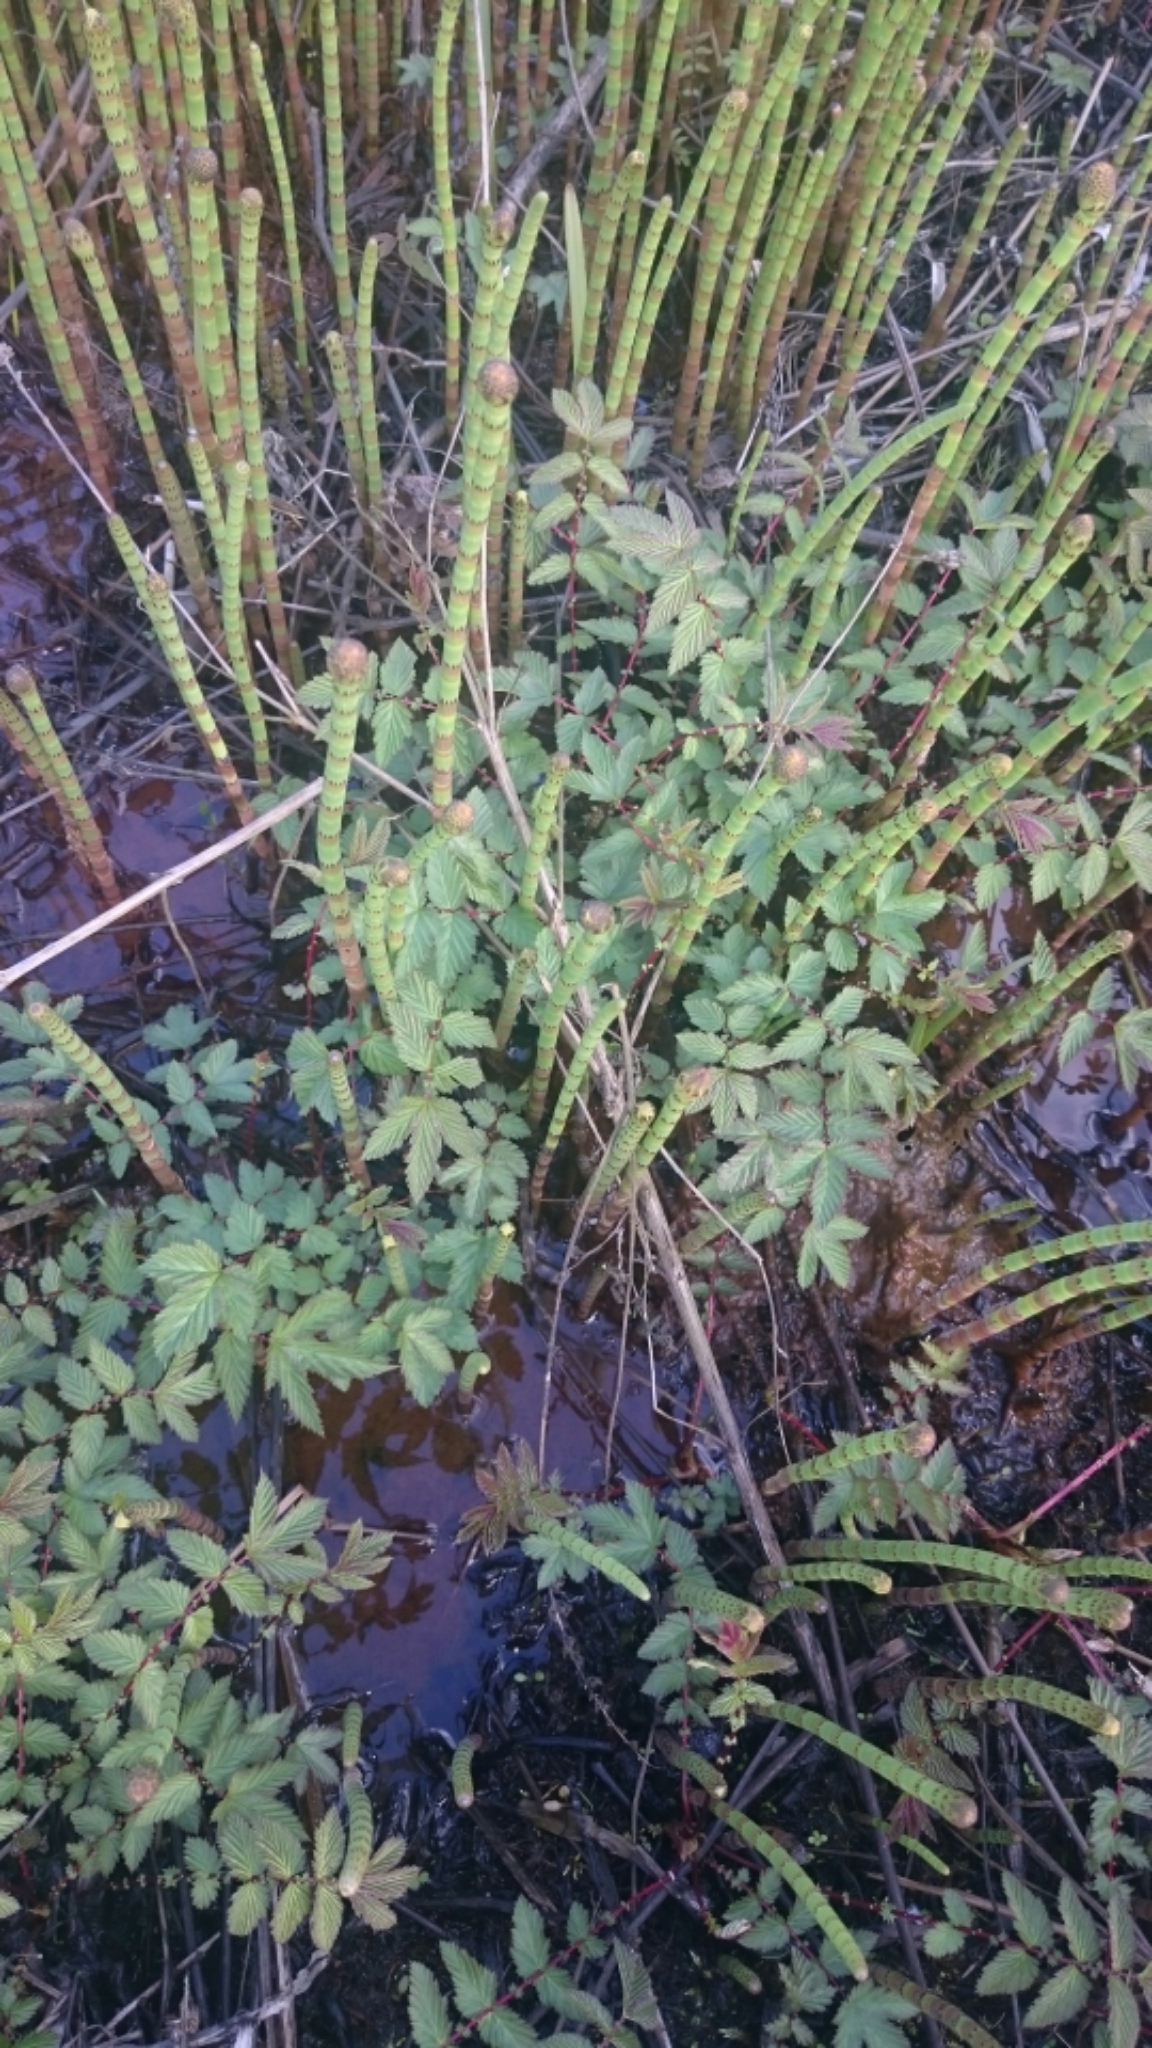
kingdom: Plantae
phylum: Tracheophyta
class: Magnoliopsida
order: Rosales
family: Rosaceae
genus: Filipendula
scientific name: Filipendula ulmaria
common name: Meadowsweet
